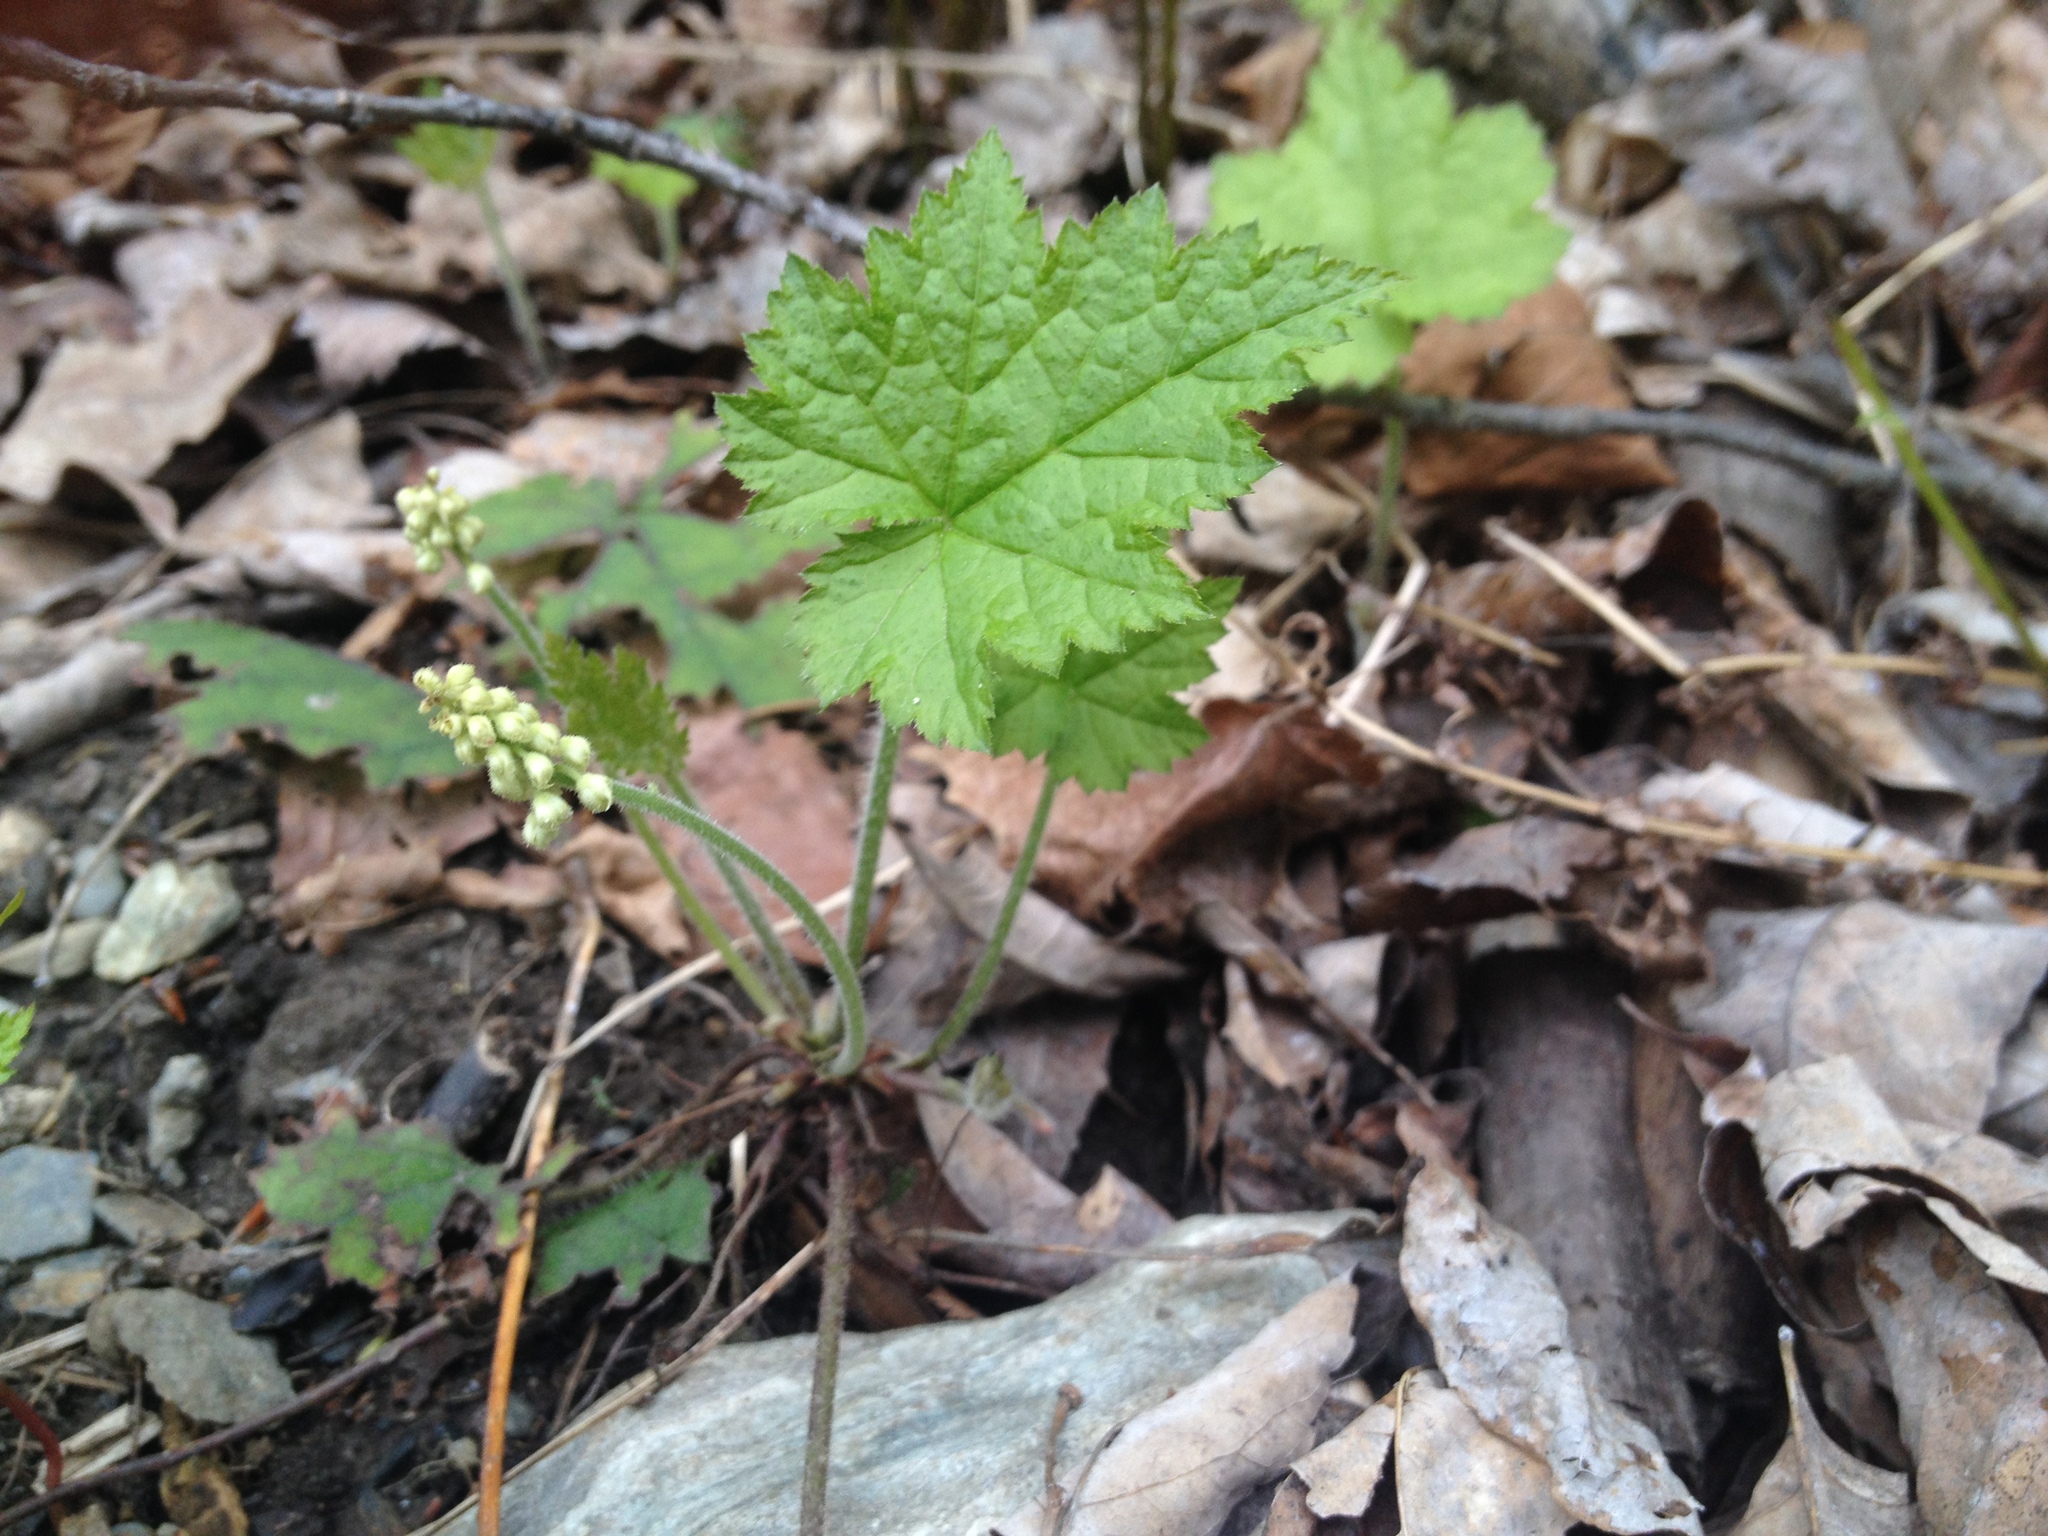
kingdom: Plantae
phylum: Tracheophyta
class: Magnoliopsida
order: Saxifragales
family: Saxifragaceae
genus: Tiarella
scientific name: Tiarella stolonifera
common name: Stoloniferous foamflower
